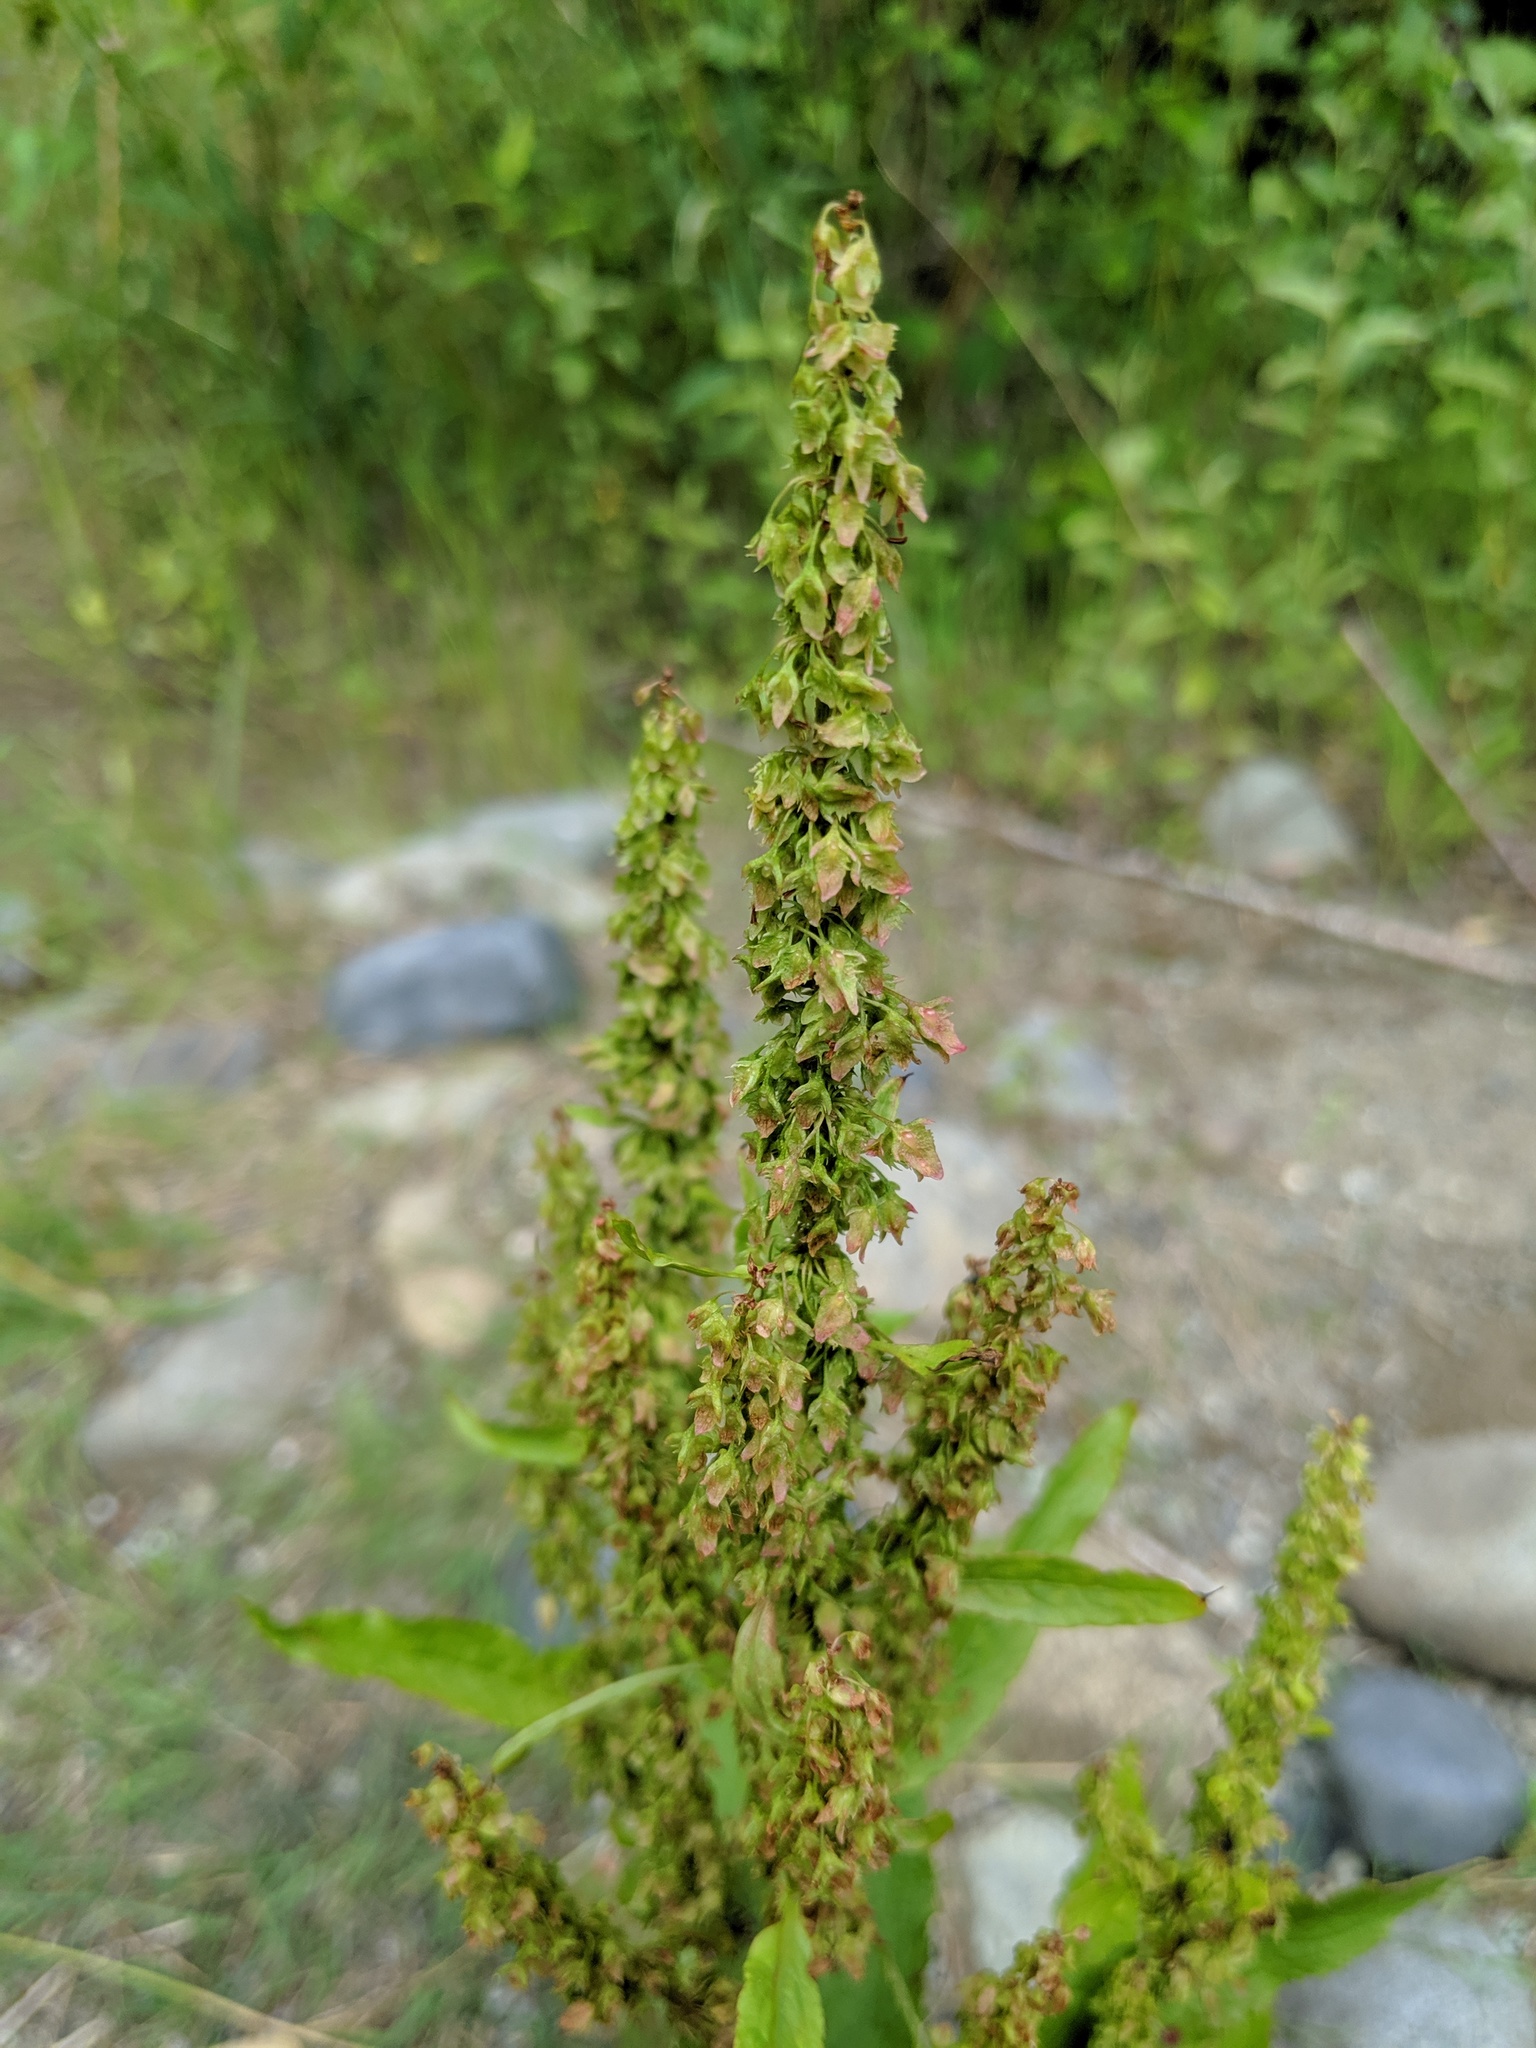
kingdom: Plantae
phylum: Tracheophyta
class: Magnoliopsida
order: Caryophyllales
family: Polygonaceae
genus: Rumex
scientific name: Rumex obtusifolius
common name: Bitter dock
